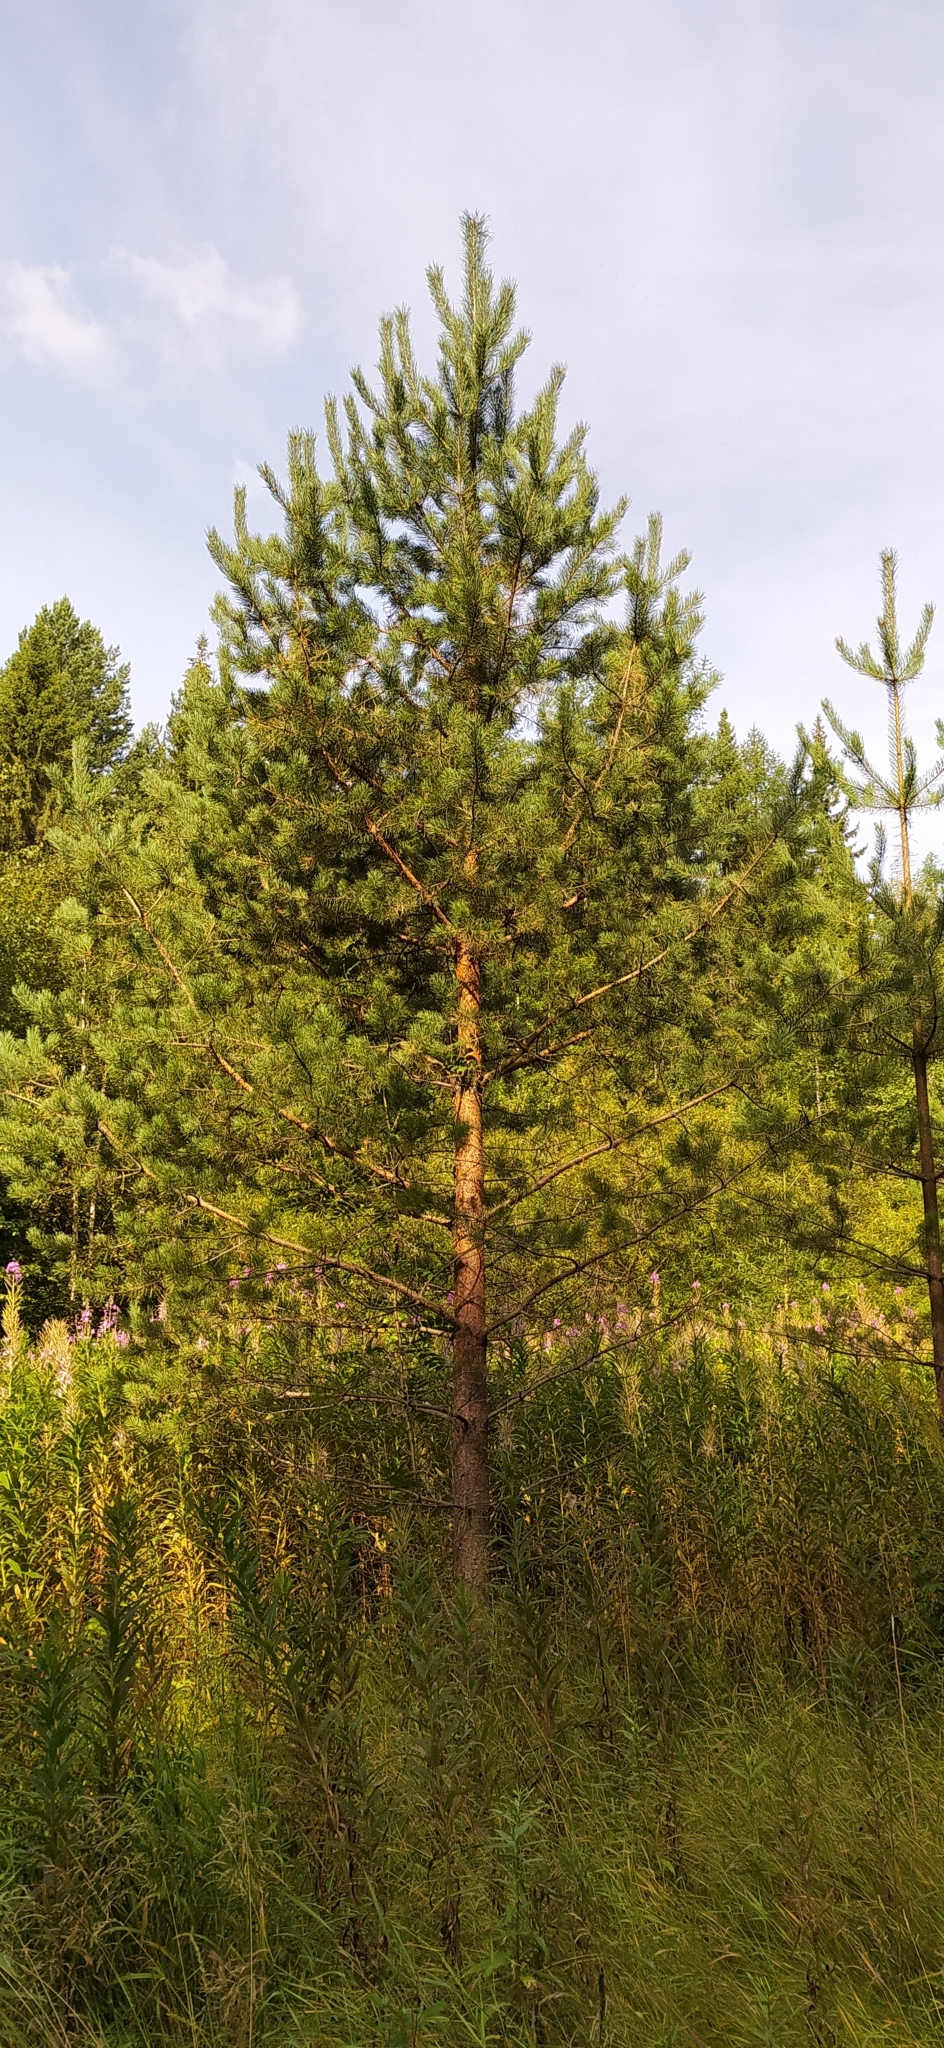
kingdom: Plantae
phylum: Tracheophyta
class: Pinopsida
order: Pinales
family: Pinaceae
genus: Pinus
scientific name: Pinus sylvestris
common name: Scots pine
